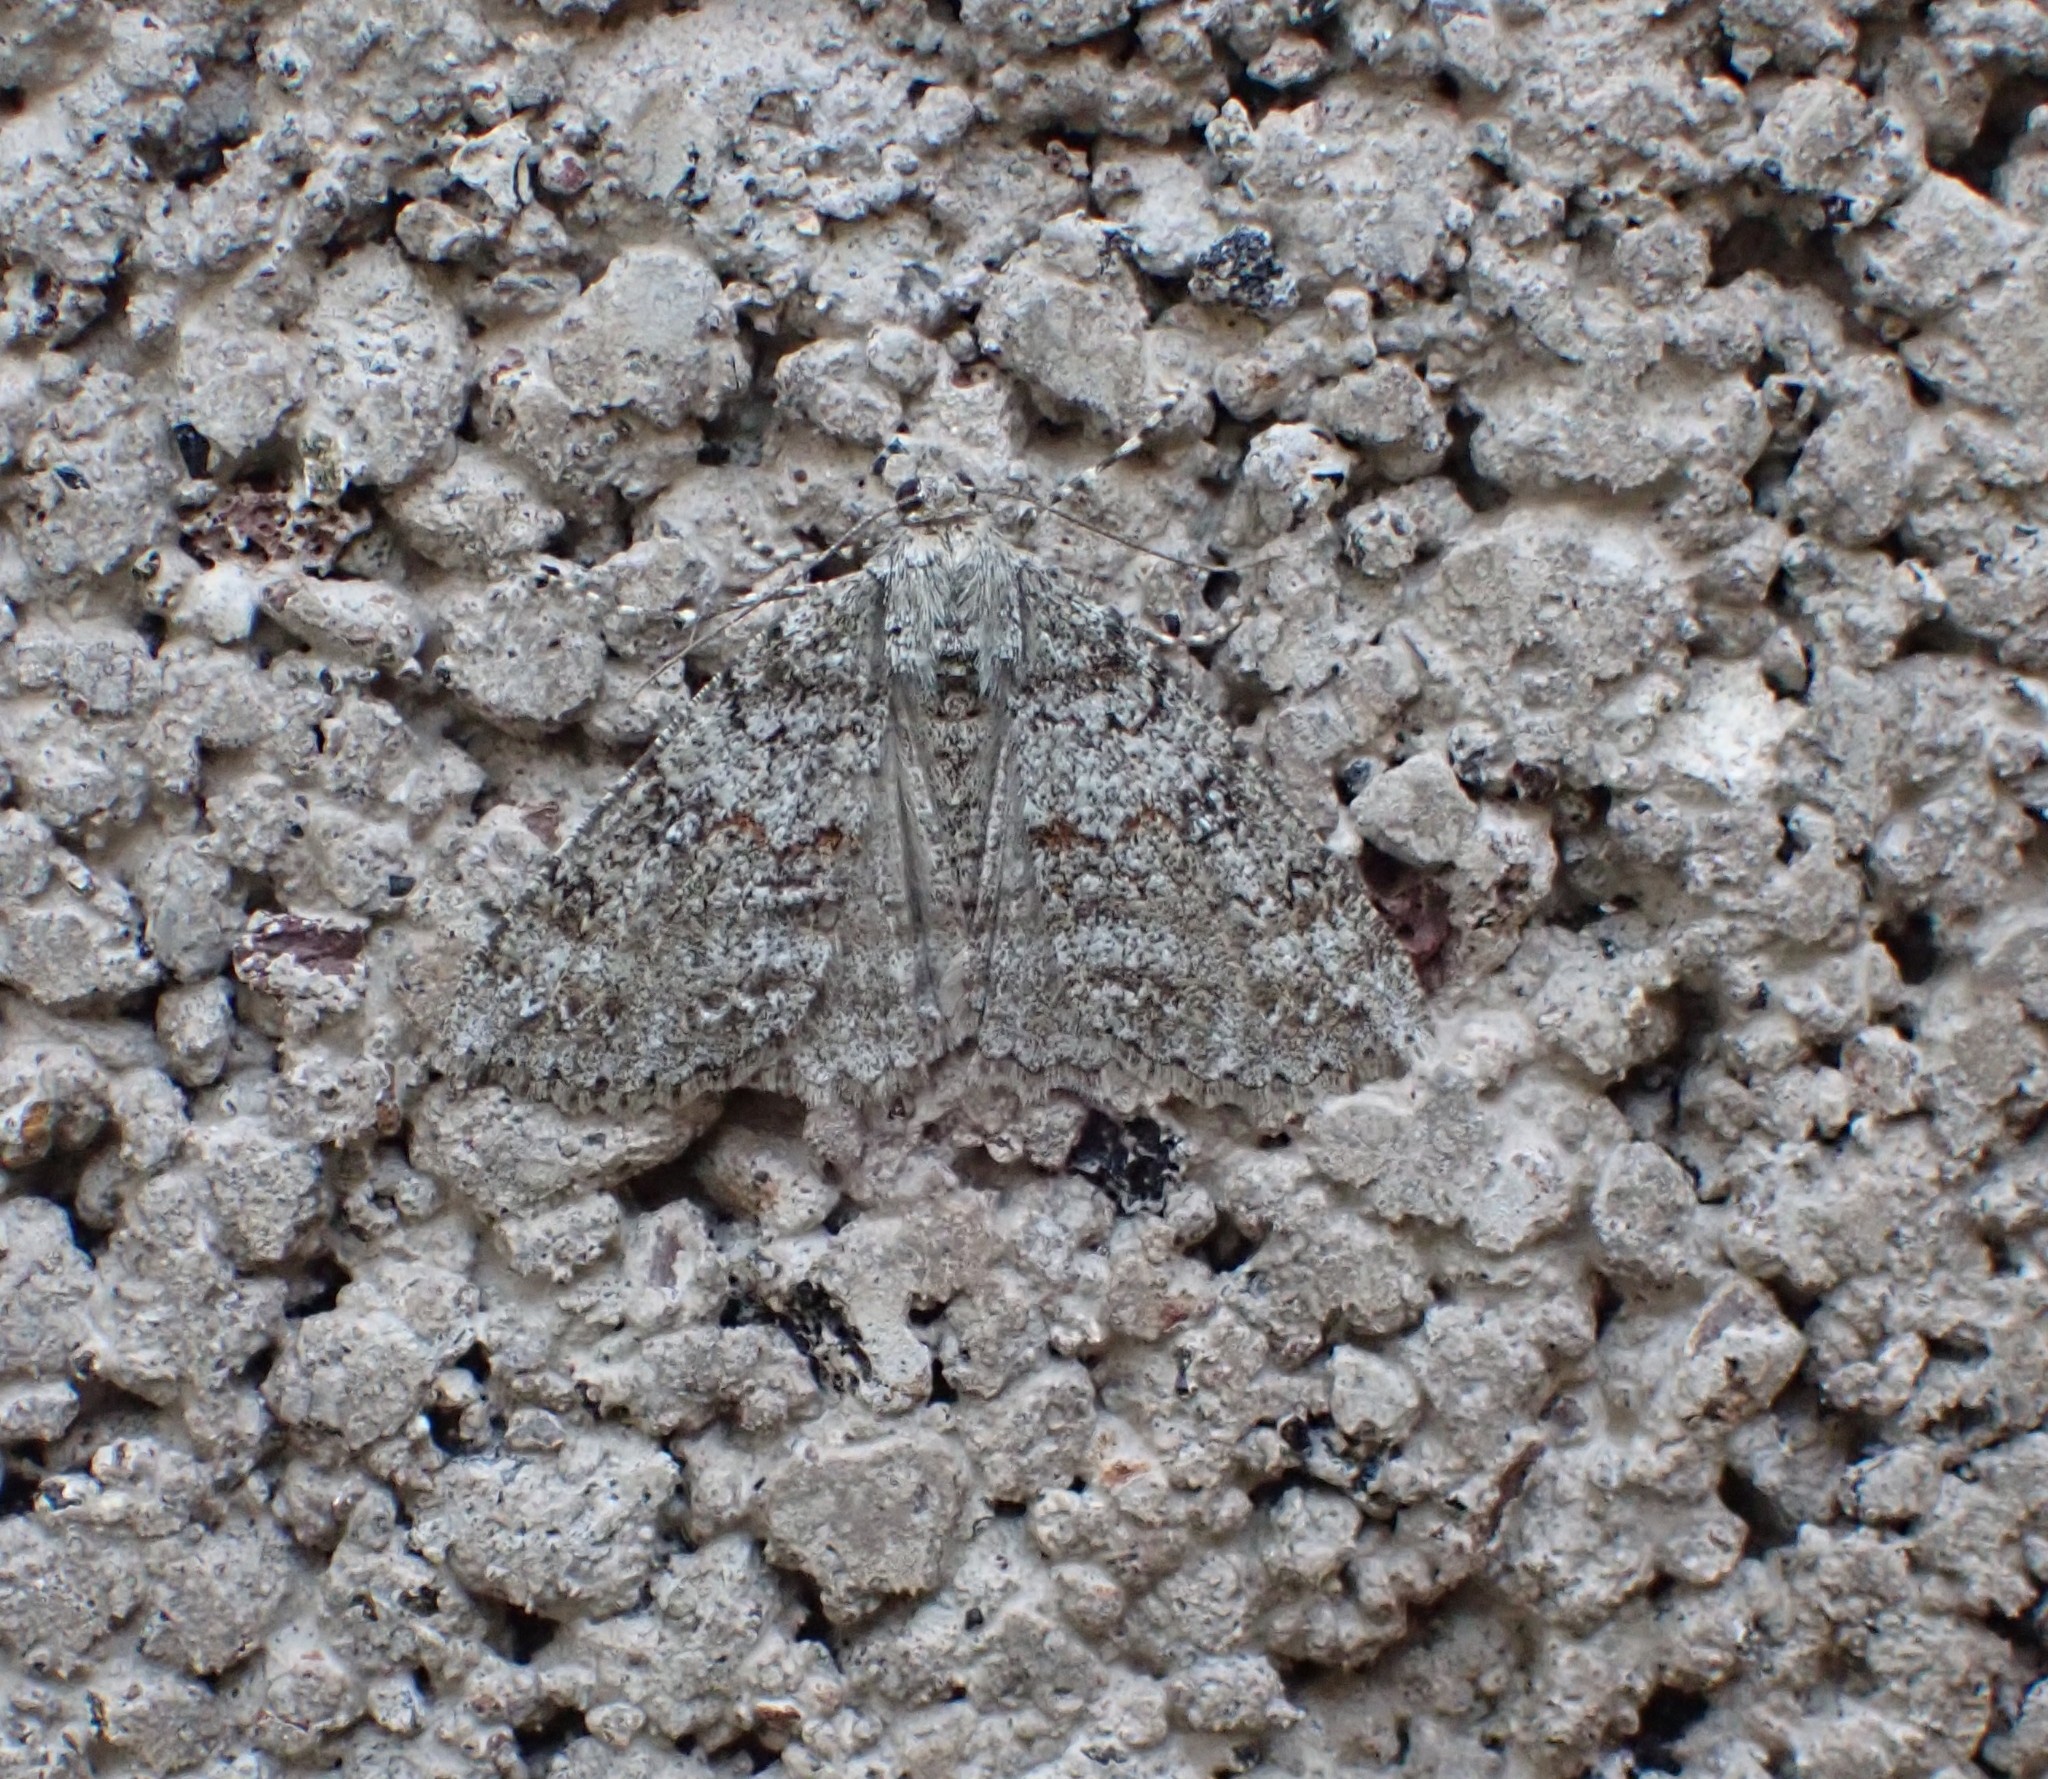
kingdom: Animalia
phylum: Arthropoda
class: Insecta
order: Lepidoptera
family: Geometridae
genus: Ascotis
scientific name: Ascotis fortunata
